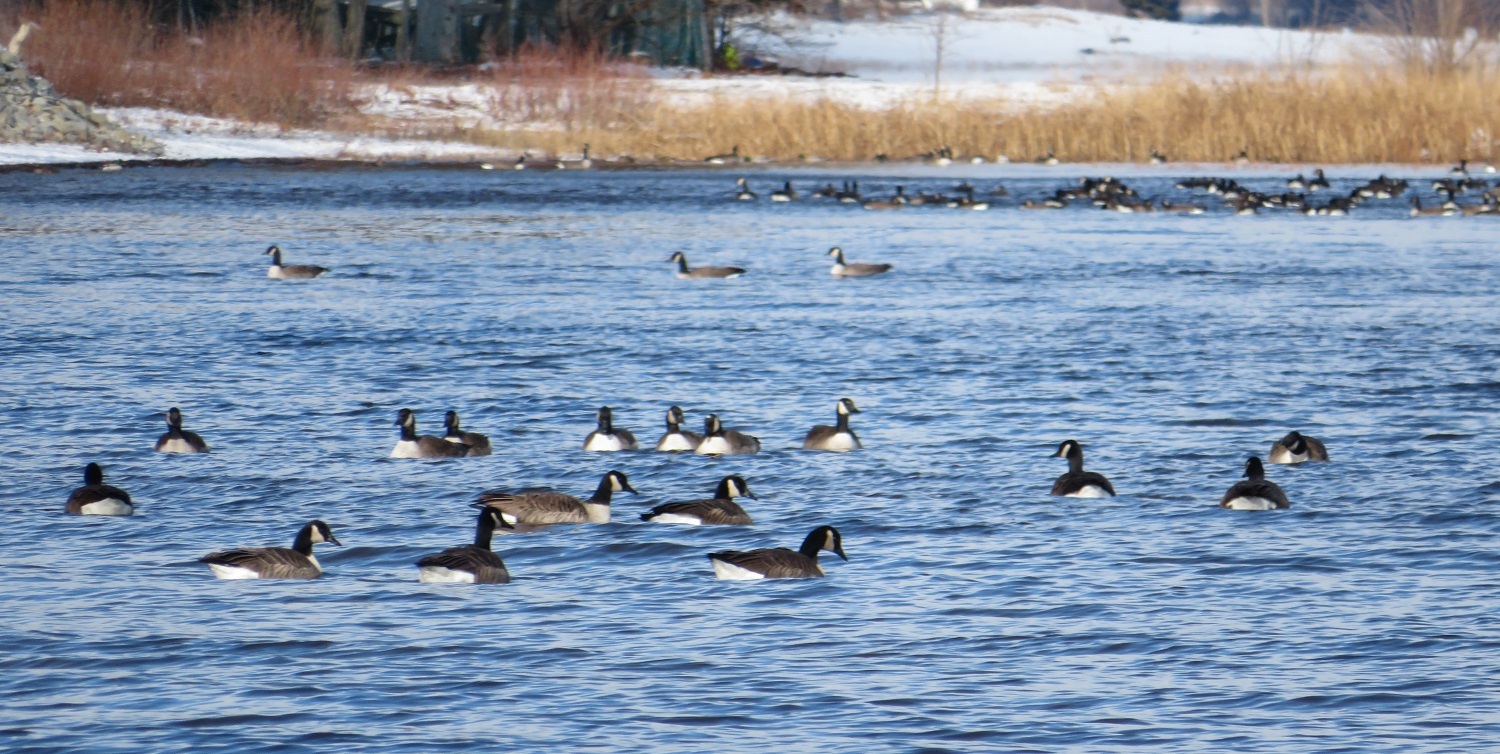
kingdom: Animalia
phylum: Chordata
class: Aves
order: Anseriformes
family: Anatidae
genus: Branta
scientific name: Branta canadensis
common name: Canada goose
